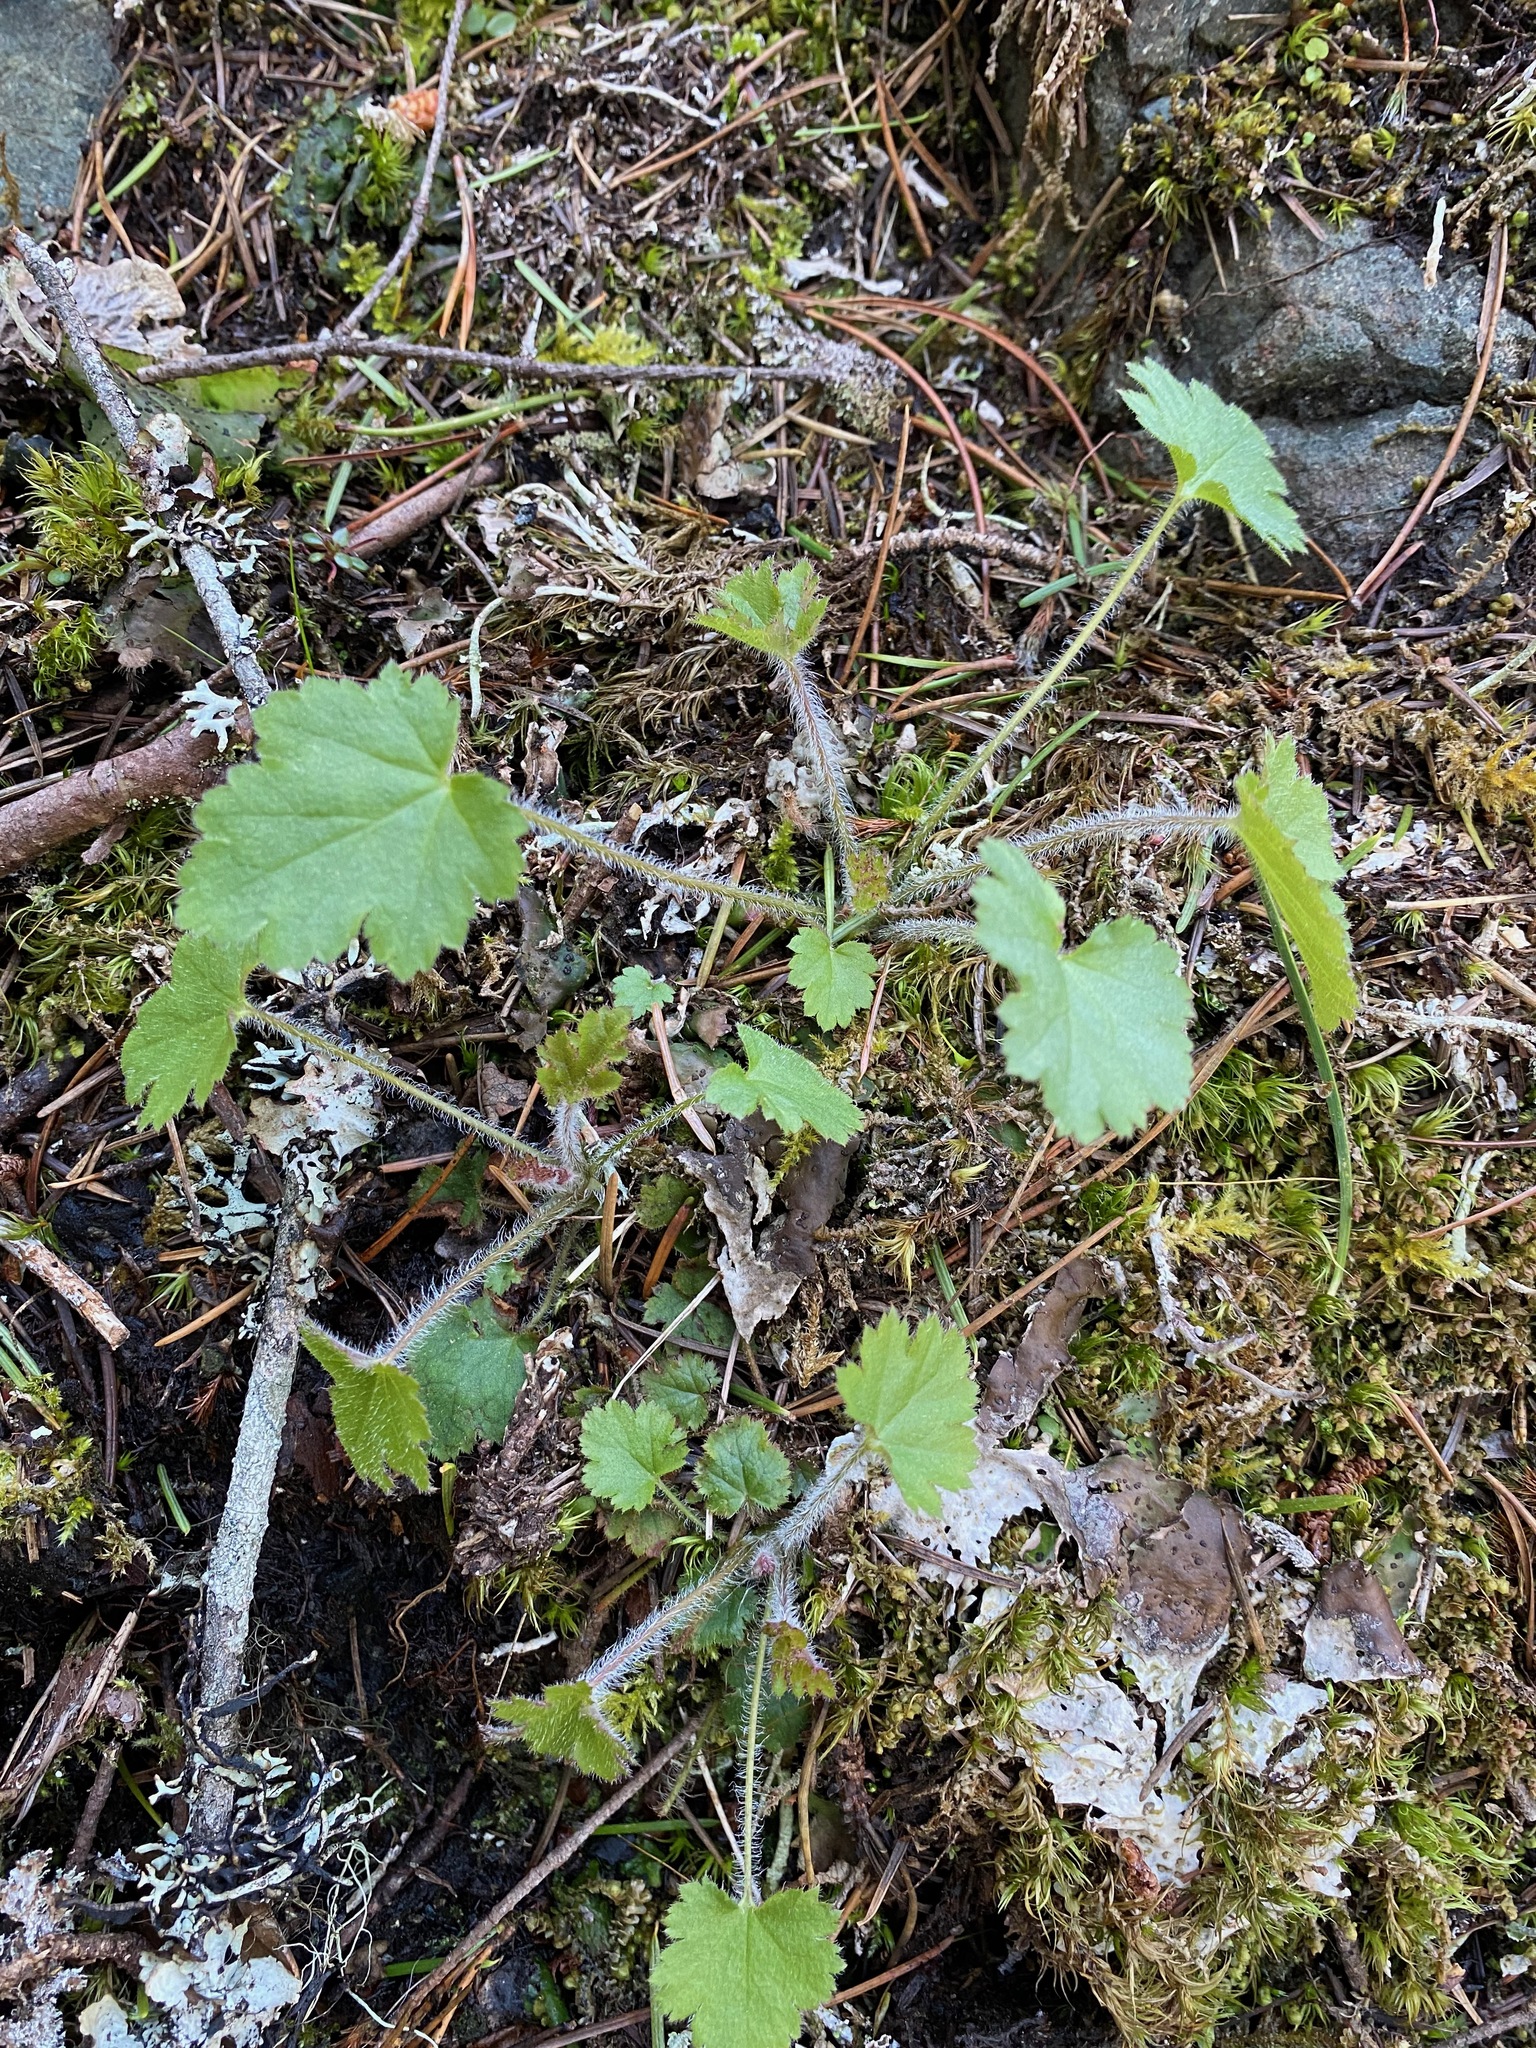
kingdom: Plantae
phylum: Tracheophyta
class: Magnoliopsida
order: Saxifragales
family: Saxifragaceae
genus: Heuchera
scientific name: Heuchera micrantha
